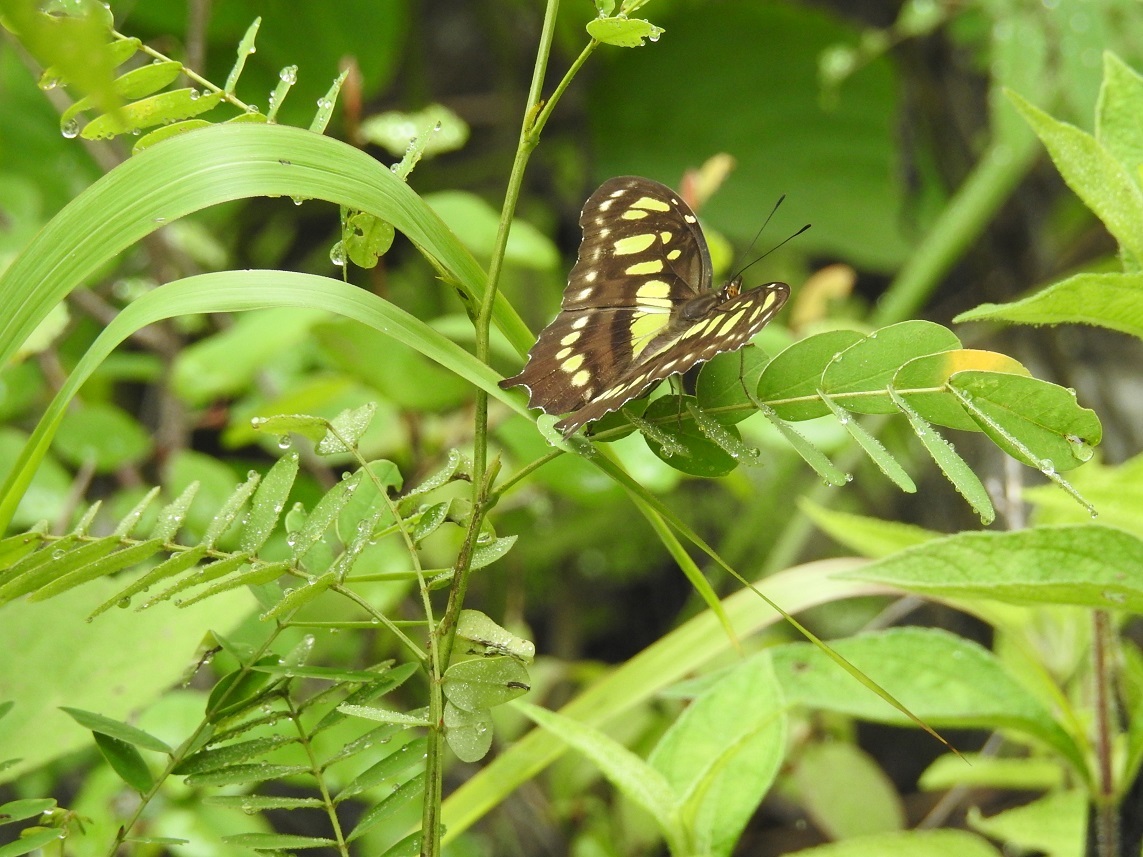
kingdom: Animalia
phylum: Arthropoda
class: Insecta
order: Lepidoptera
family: Nymphalidae
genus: Siproeta
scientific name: Siproeta stelenes
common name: Malachite
